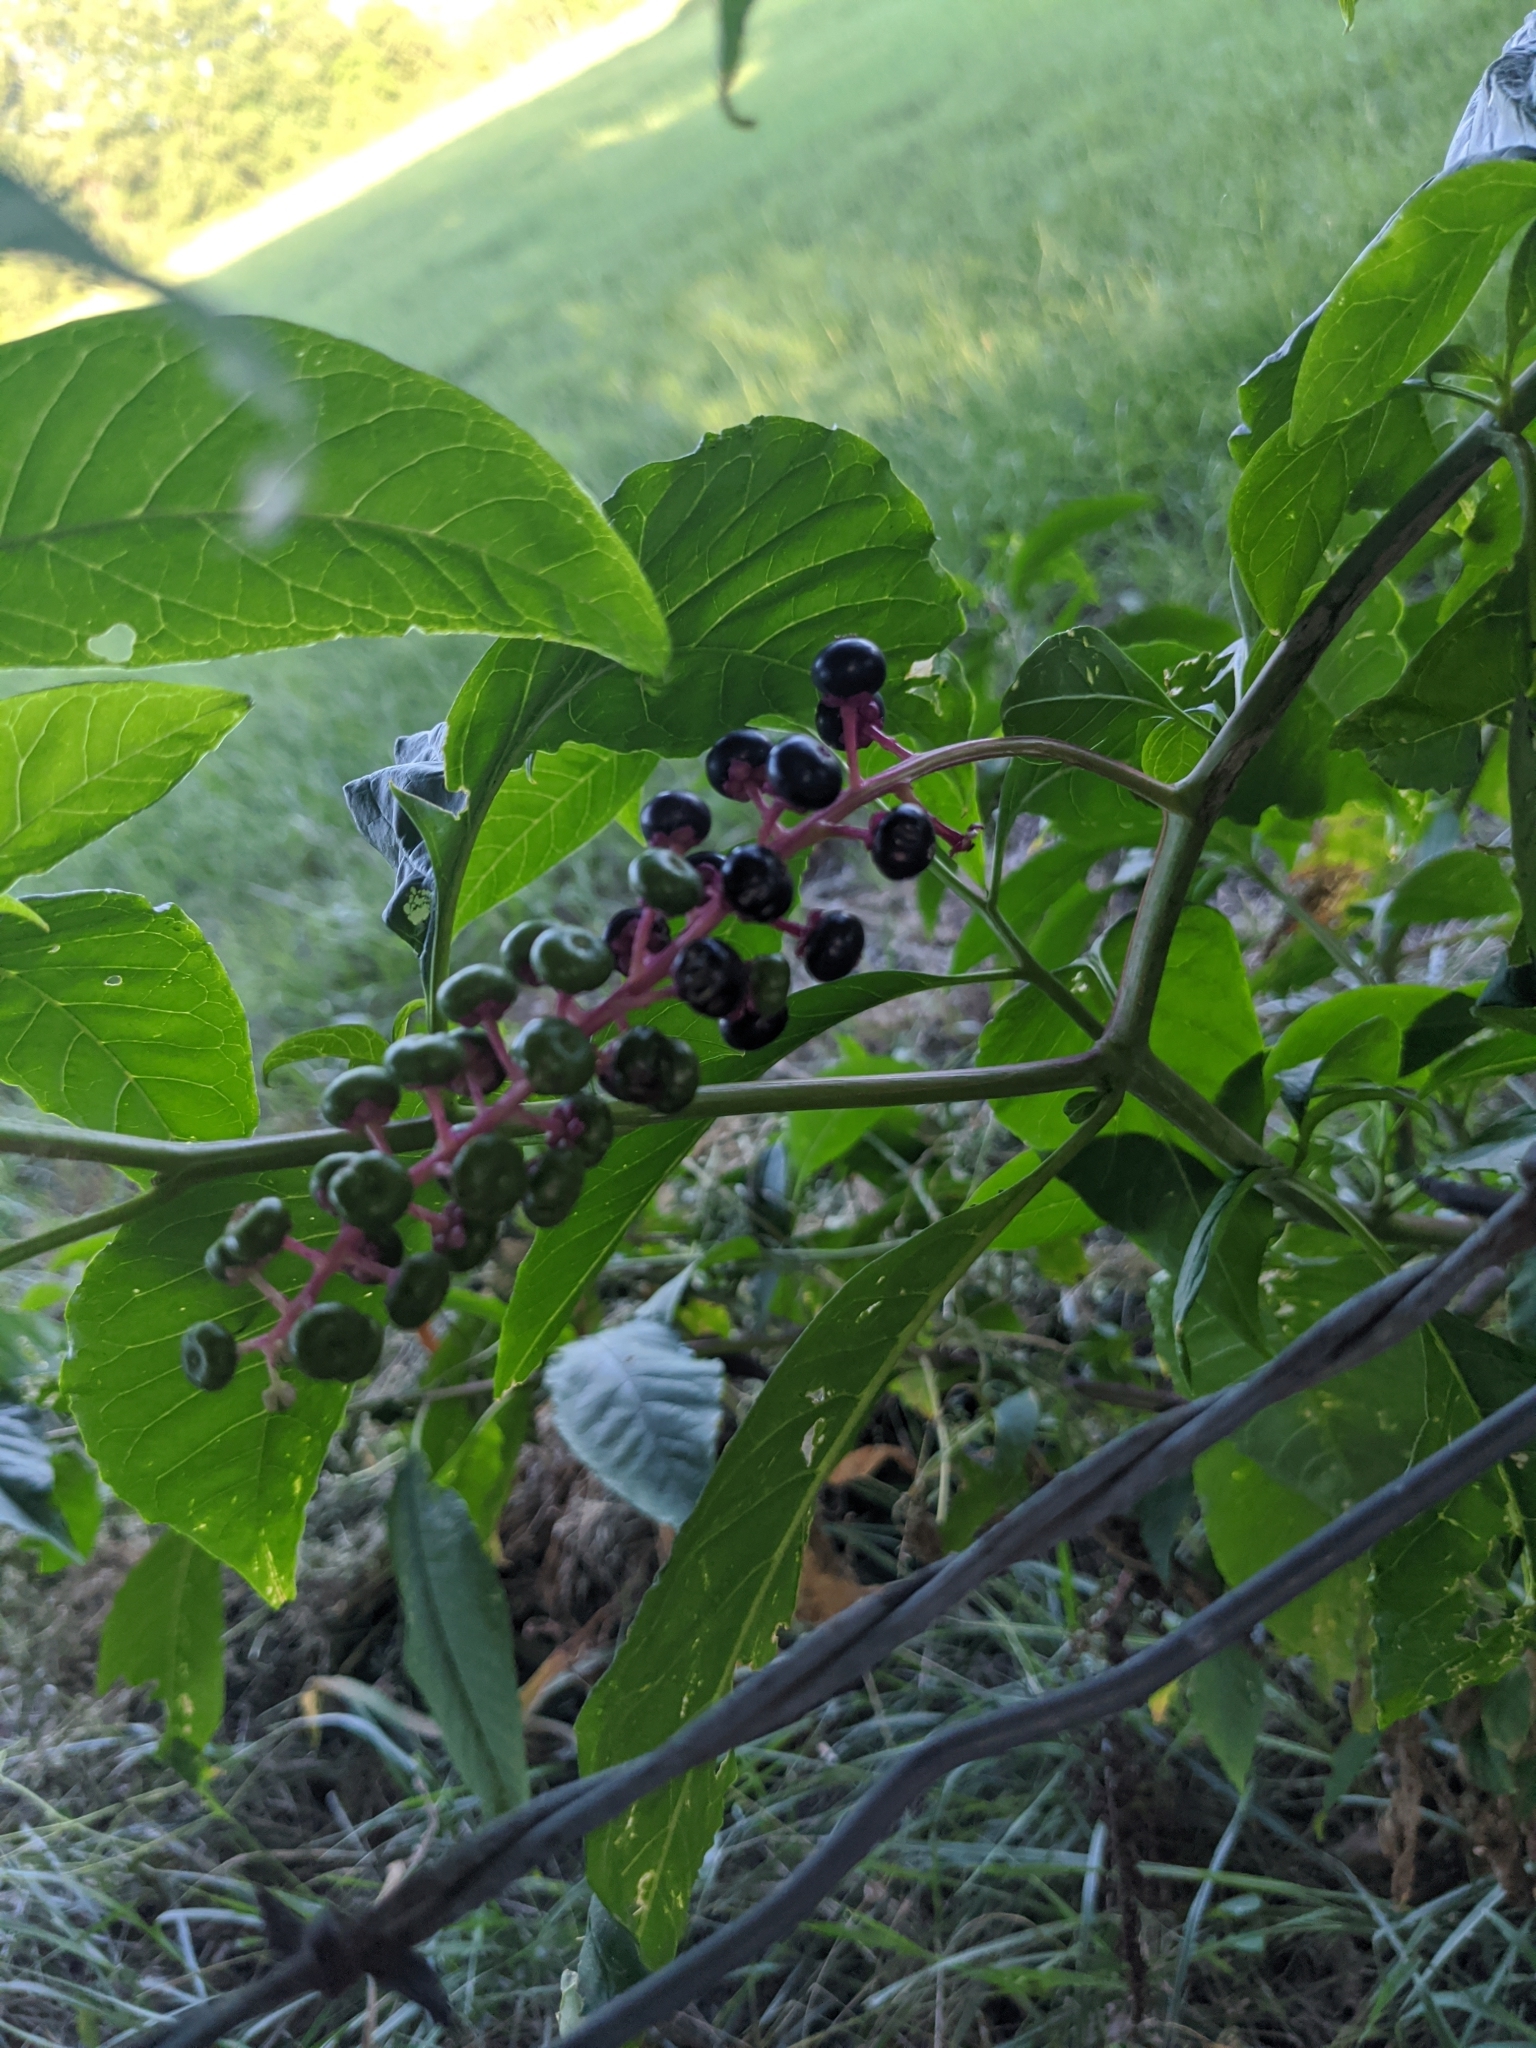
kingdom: Plantae
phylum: Tracheophyta
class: Magnoliopsida
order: Caryophyllales
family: Phytolaccaceae
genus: Phytolacca
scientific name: Phytolacca americana
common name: American pokeweed
